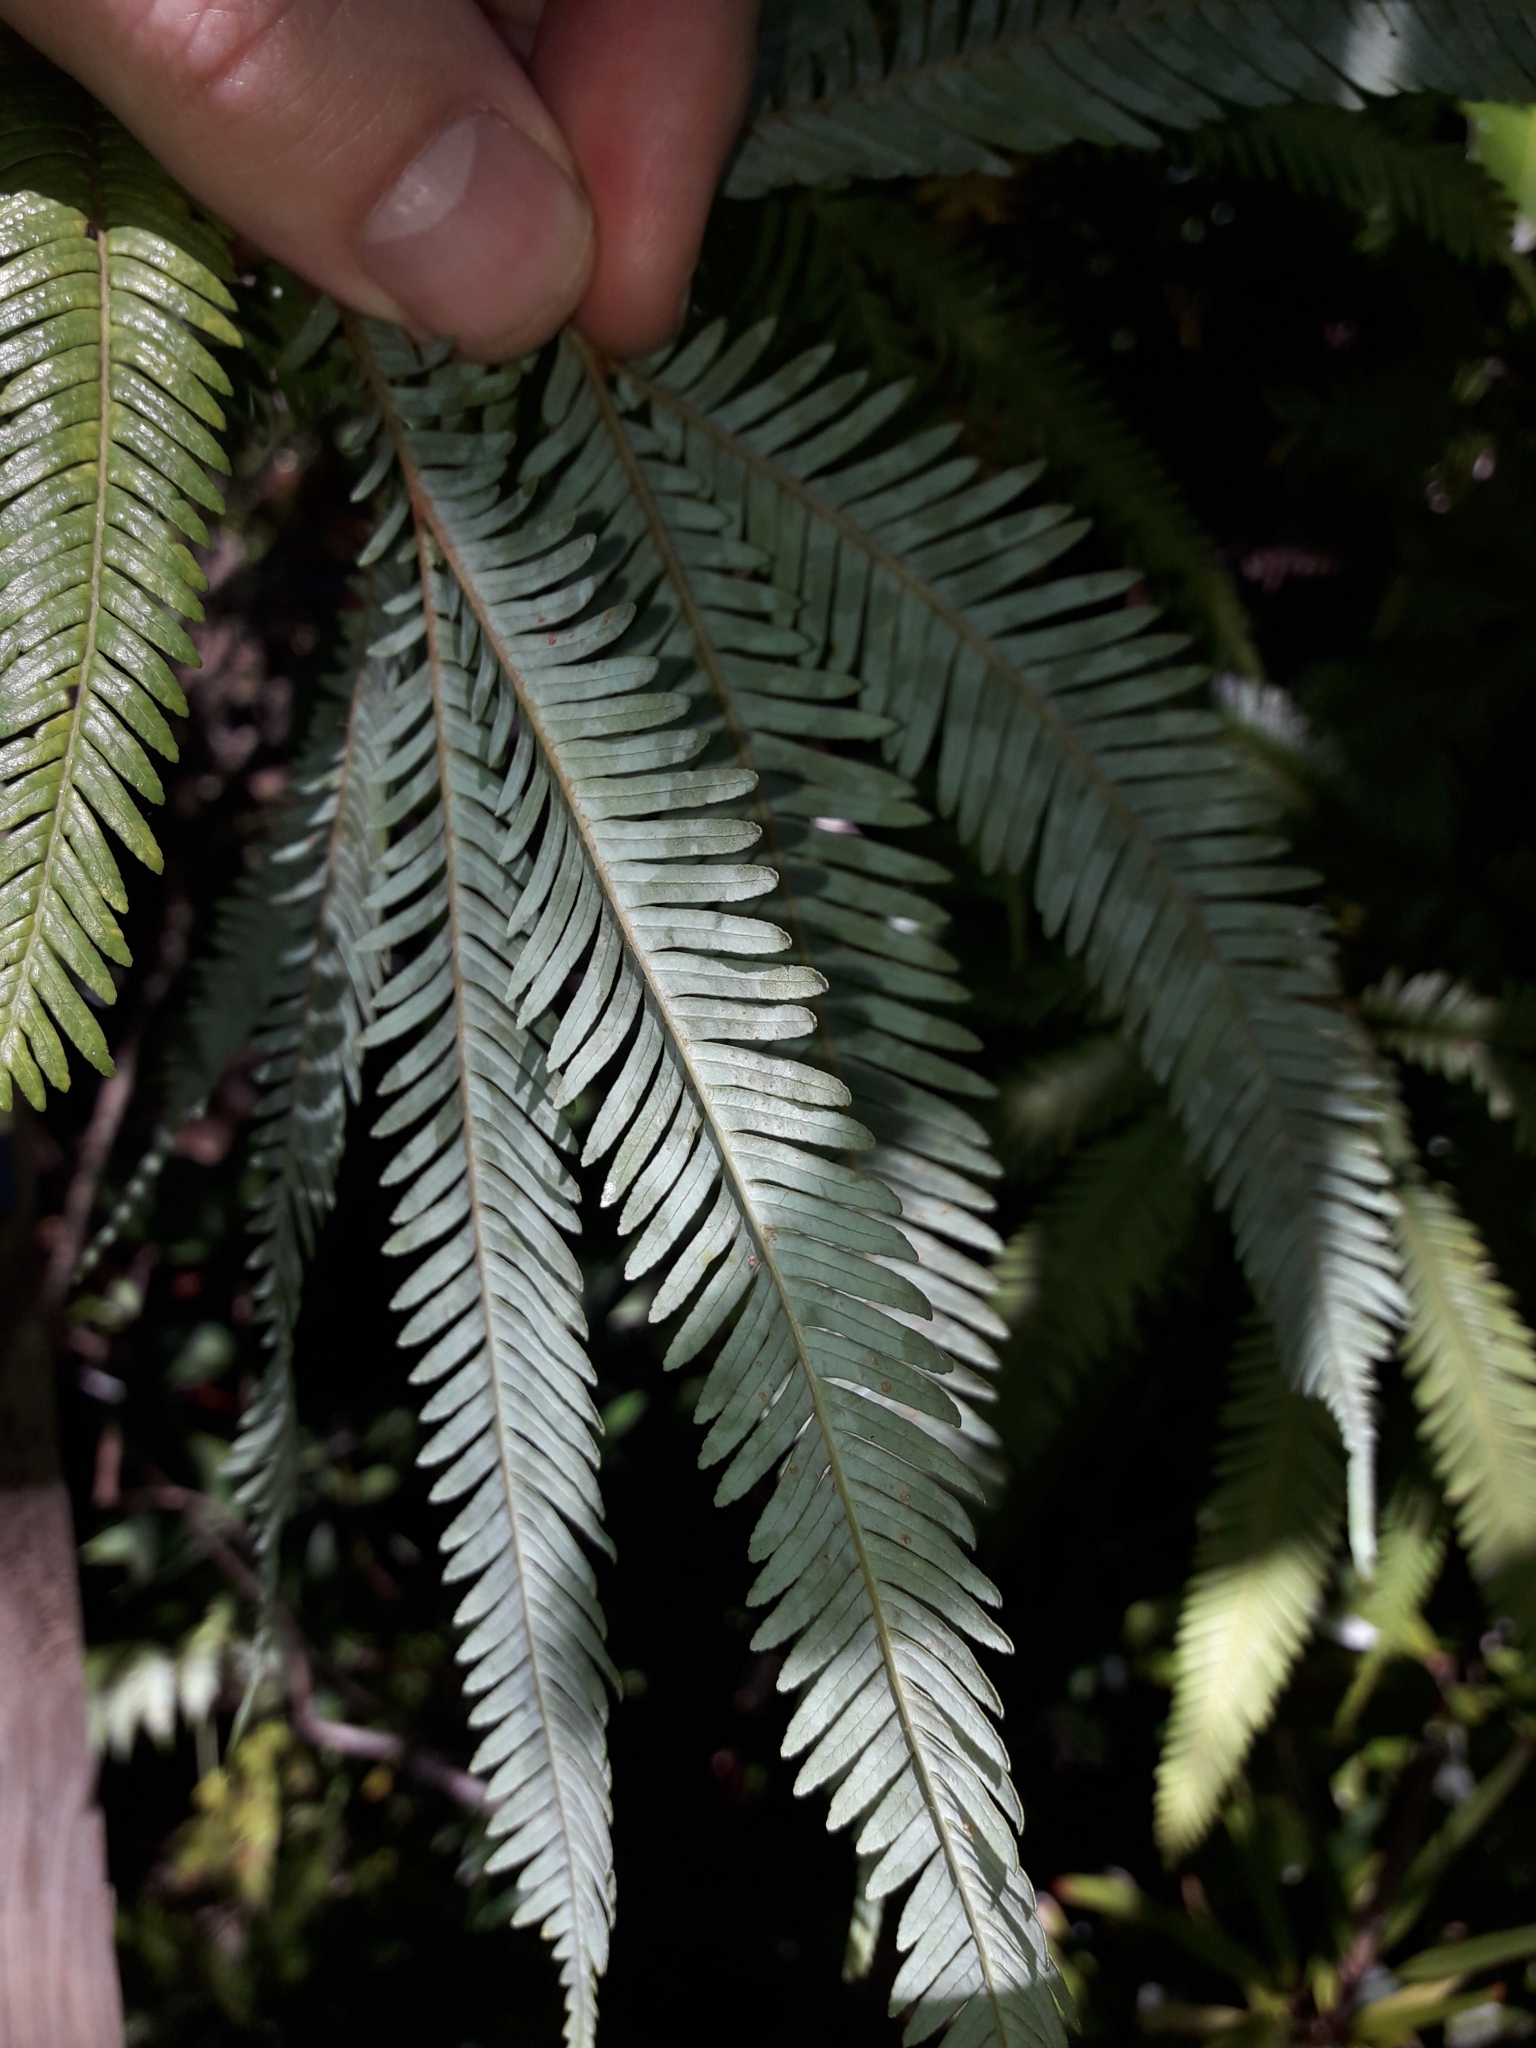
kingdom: Plantae
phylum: Tracheophyta
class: Polypodiopsida
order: Gleicheniales
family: Gleicheniaceae
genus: Sticherus
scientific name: Sticherus montaguei
